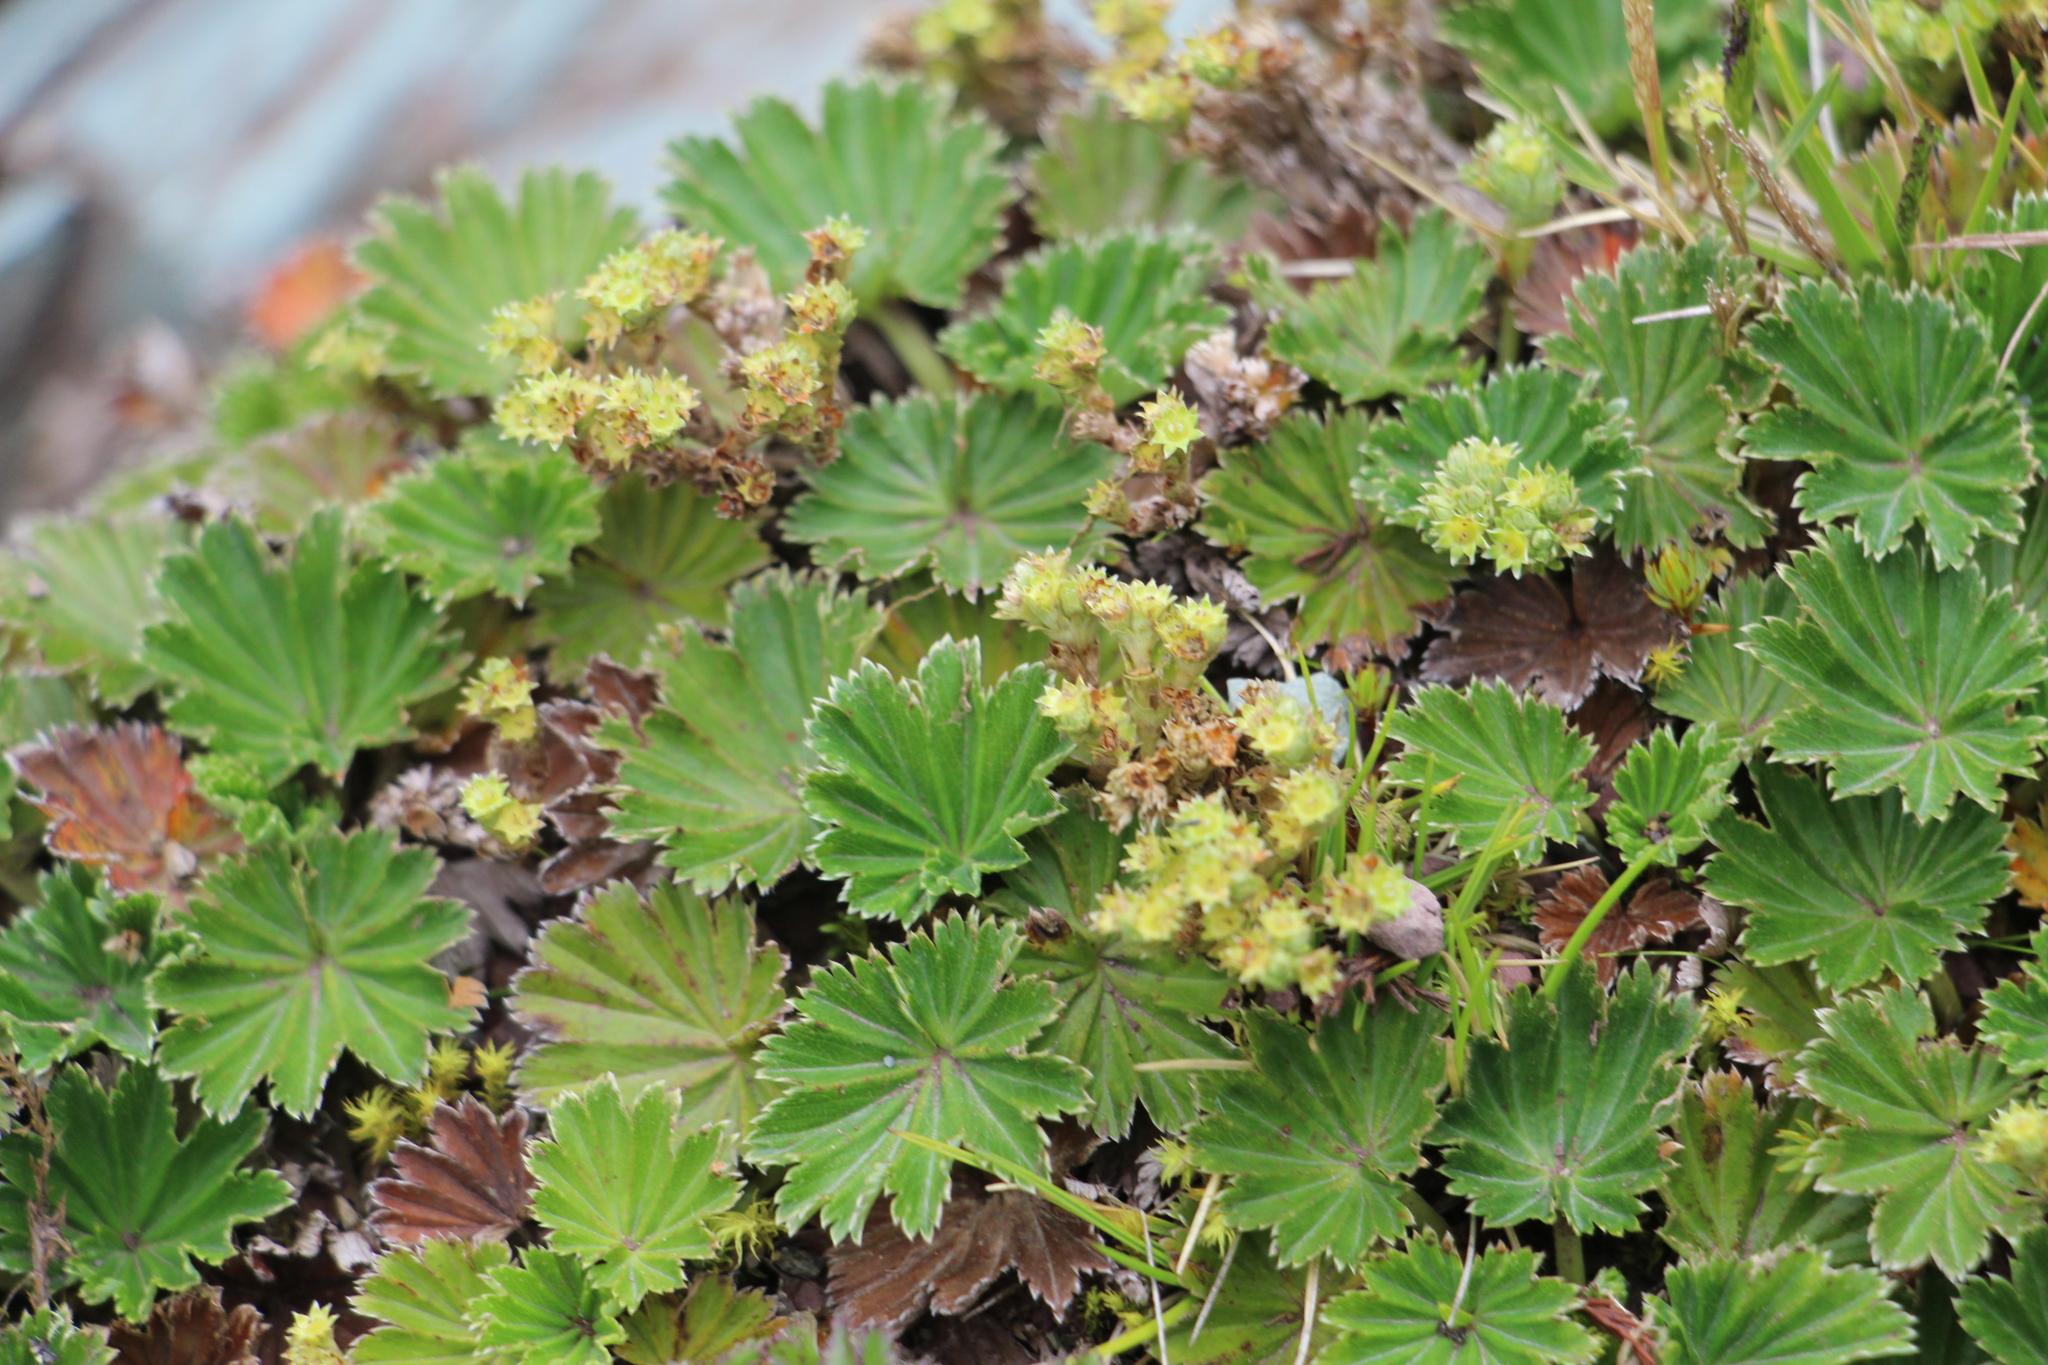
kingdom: Plantae
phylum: Tracheophyta
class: Magnoliopsida
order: Rosales
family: Rosaceae
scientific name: Rosaceae
